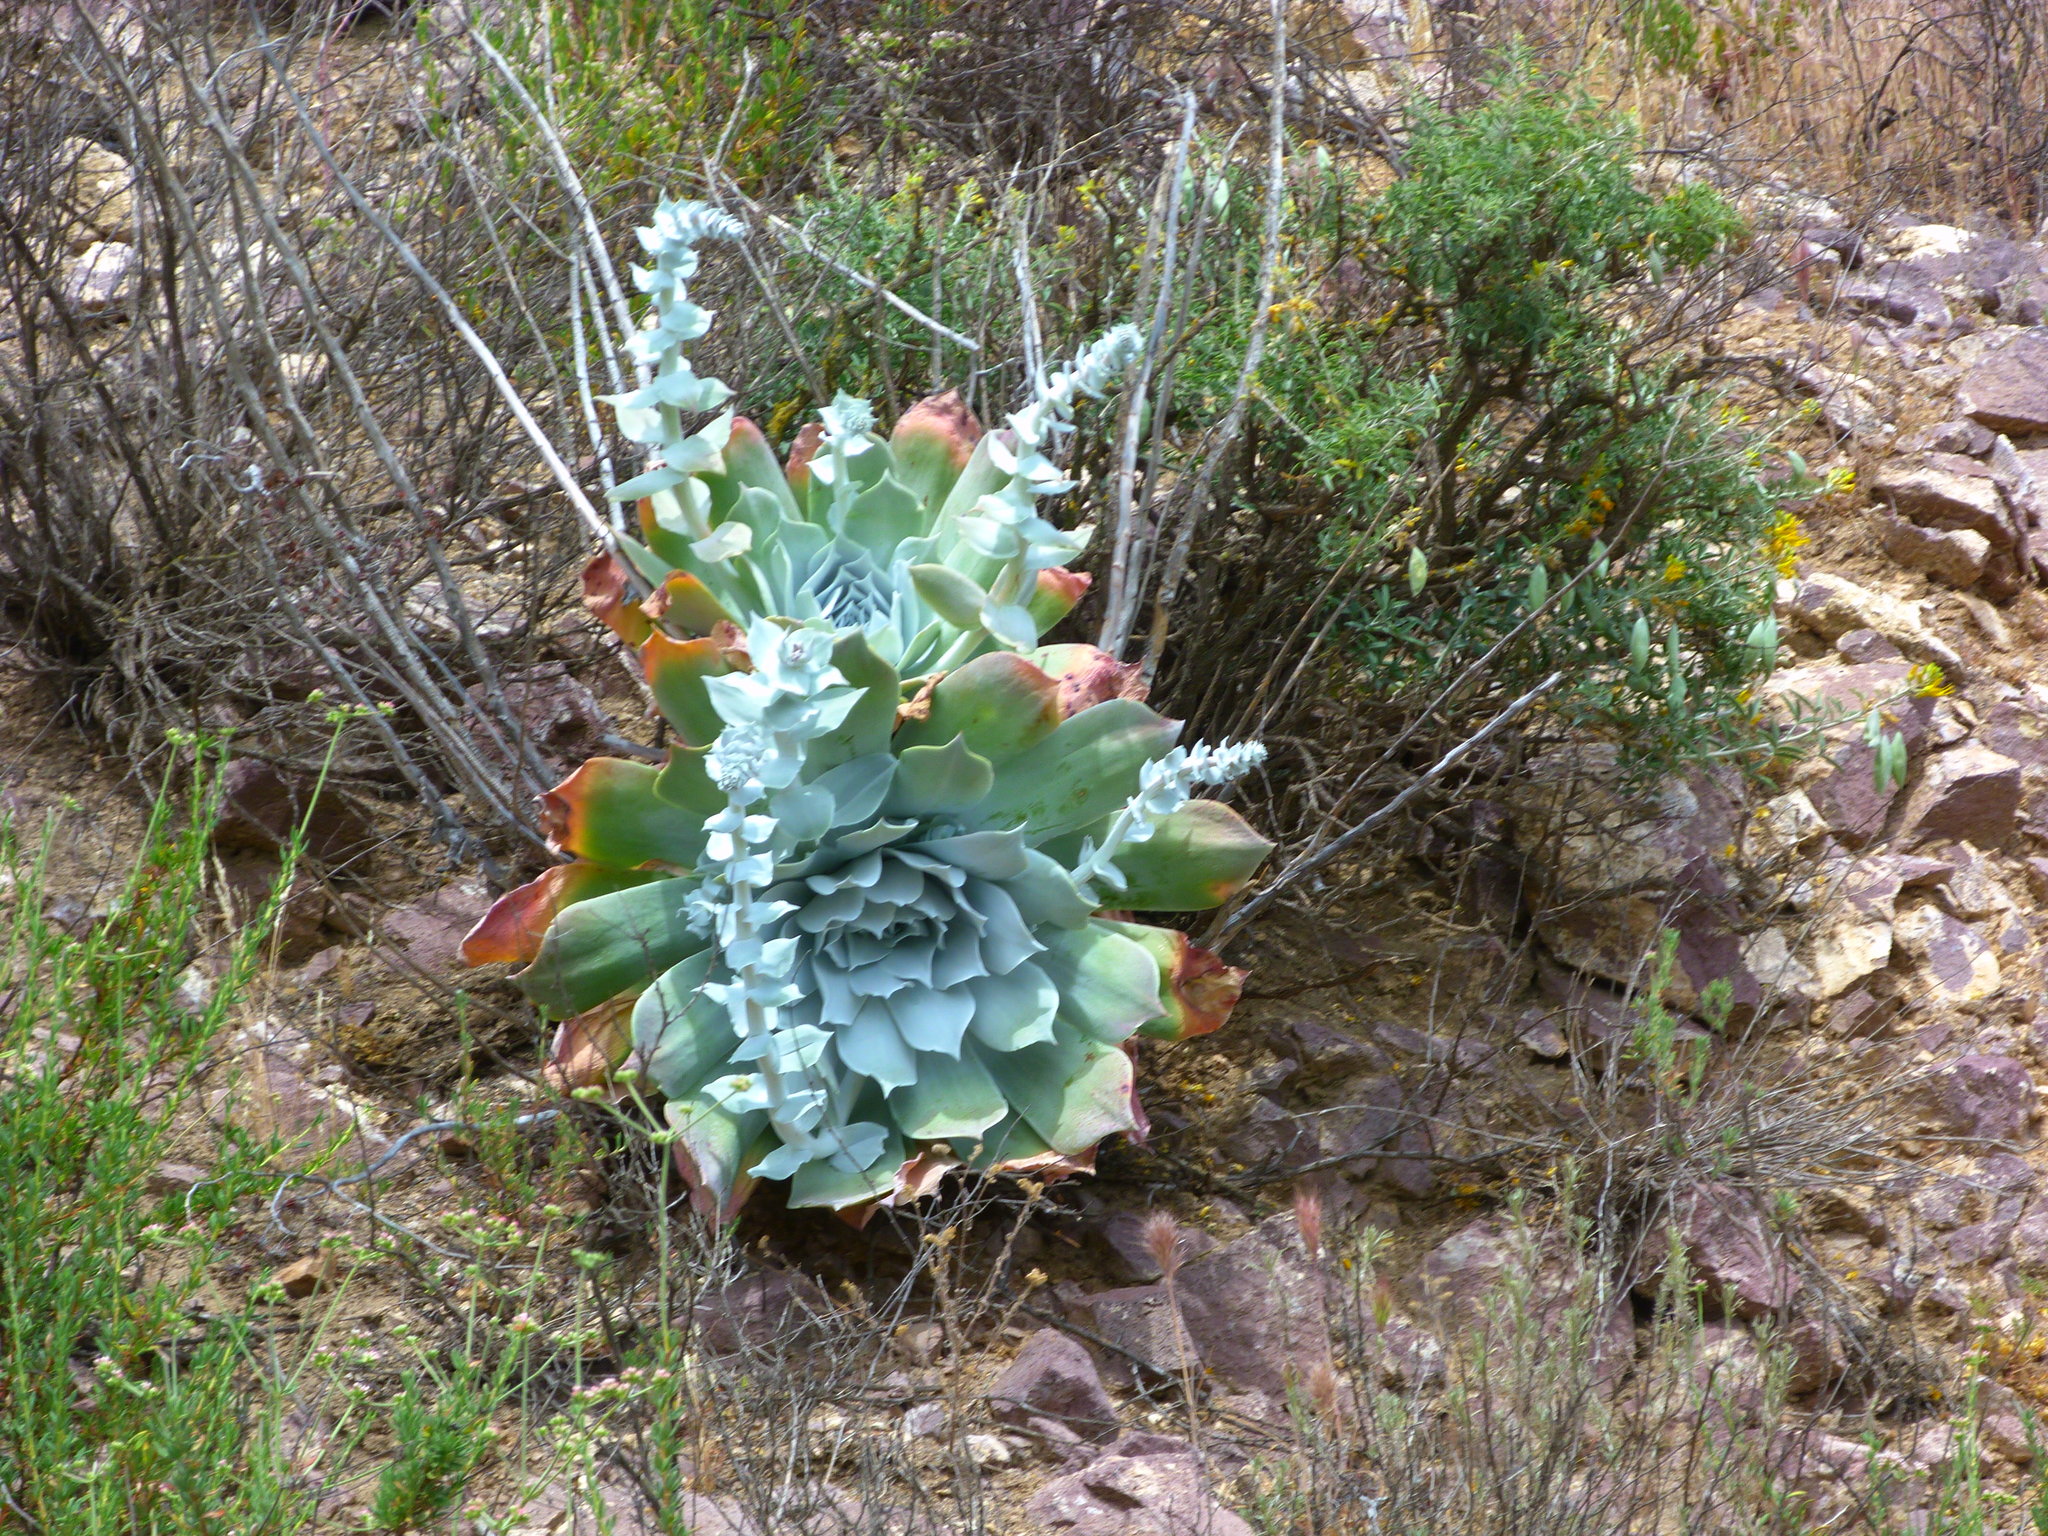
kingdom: Plantae
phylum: Tracheophyta
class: Magnoliopsida
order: Saxifragales
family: Crassulaceae
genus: Dudleya
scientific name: Dudleya pulverulenta
